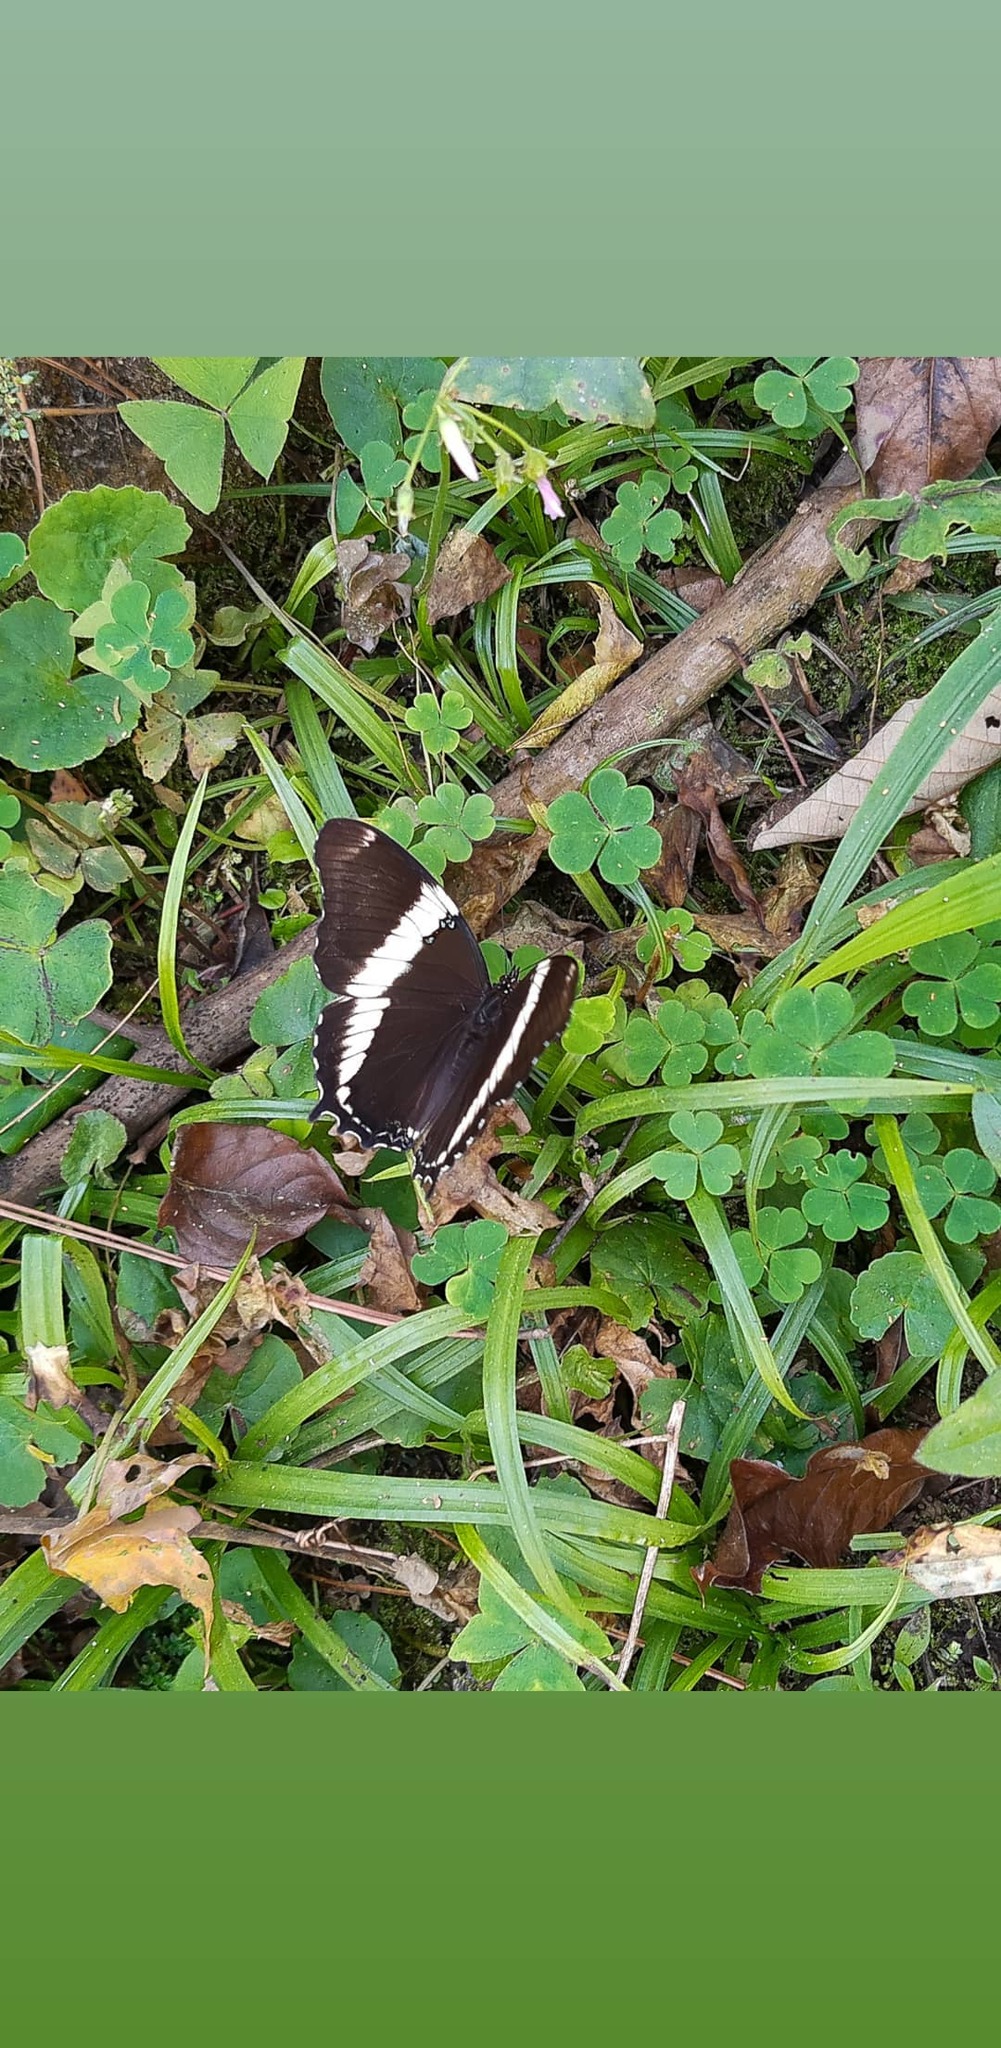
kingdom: Animalia
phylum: Arthropoda
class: Insecta
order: Lepidoptera
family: Nymphalidae
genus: Siproeta
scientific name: Siproeta epaphus
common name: Rusty-tipped page
